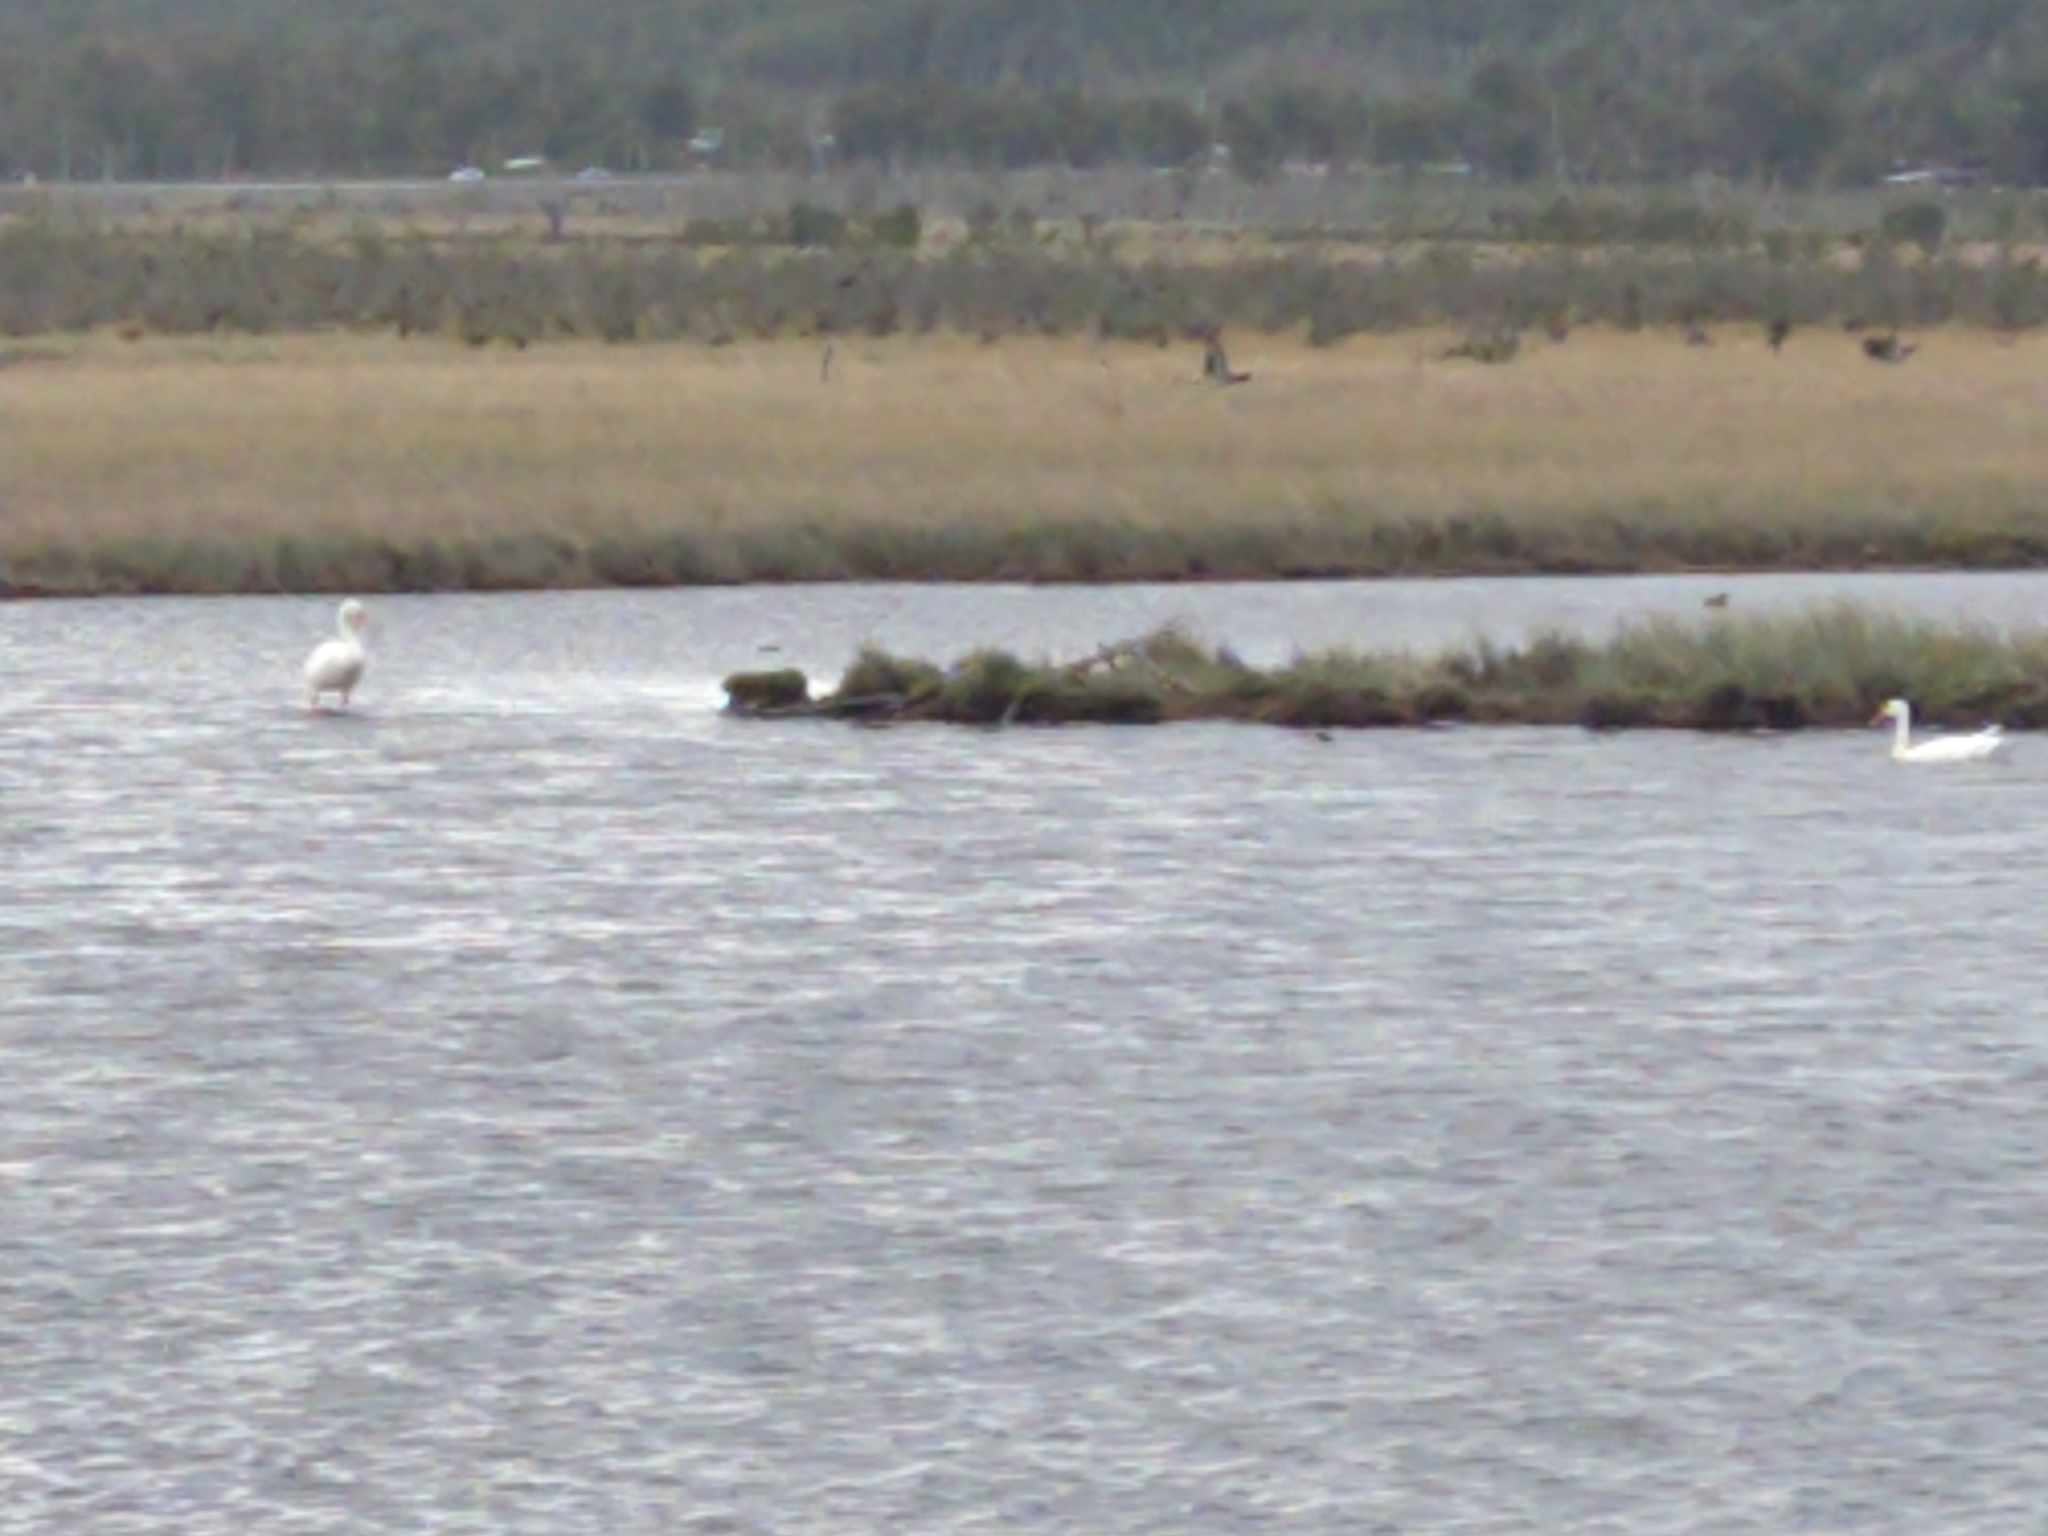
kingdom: Animalia
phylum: Chordata
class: Aves
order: Anseriformes
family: Anatidae
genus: Coscoroba
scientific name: Coscoroba coscoroba
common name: Coscoroba swan
